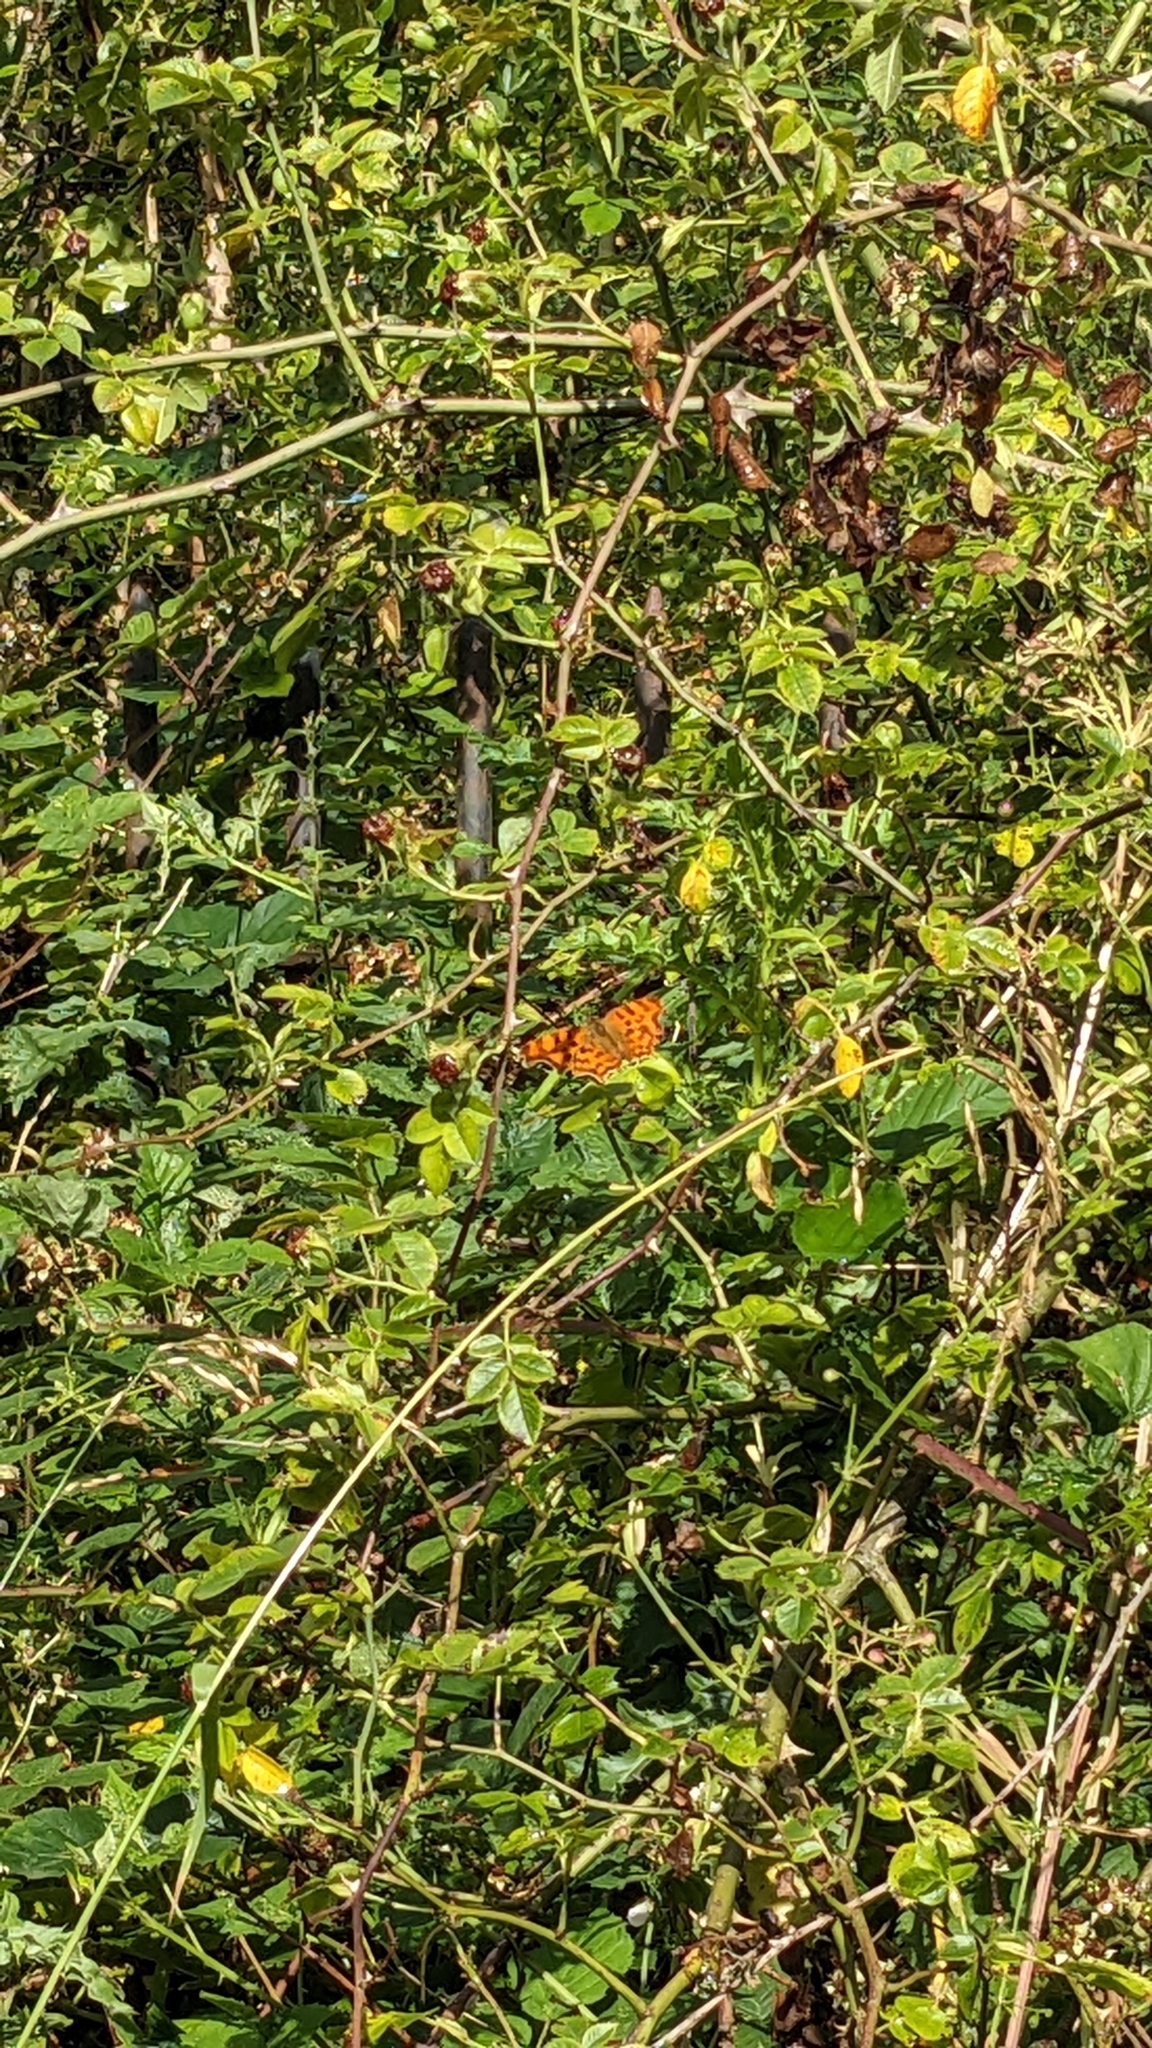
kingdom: Animalia
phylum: Arthropoda
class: Insecta
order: Lepidoptera
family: Nymphalidae
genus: Polygonia
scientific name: Polygonia c-album
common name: Comma
